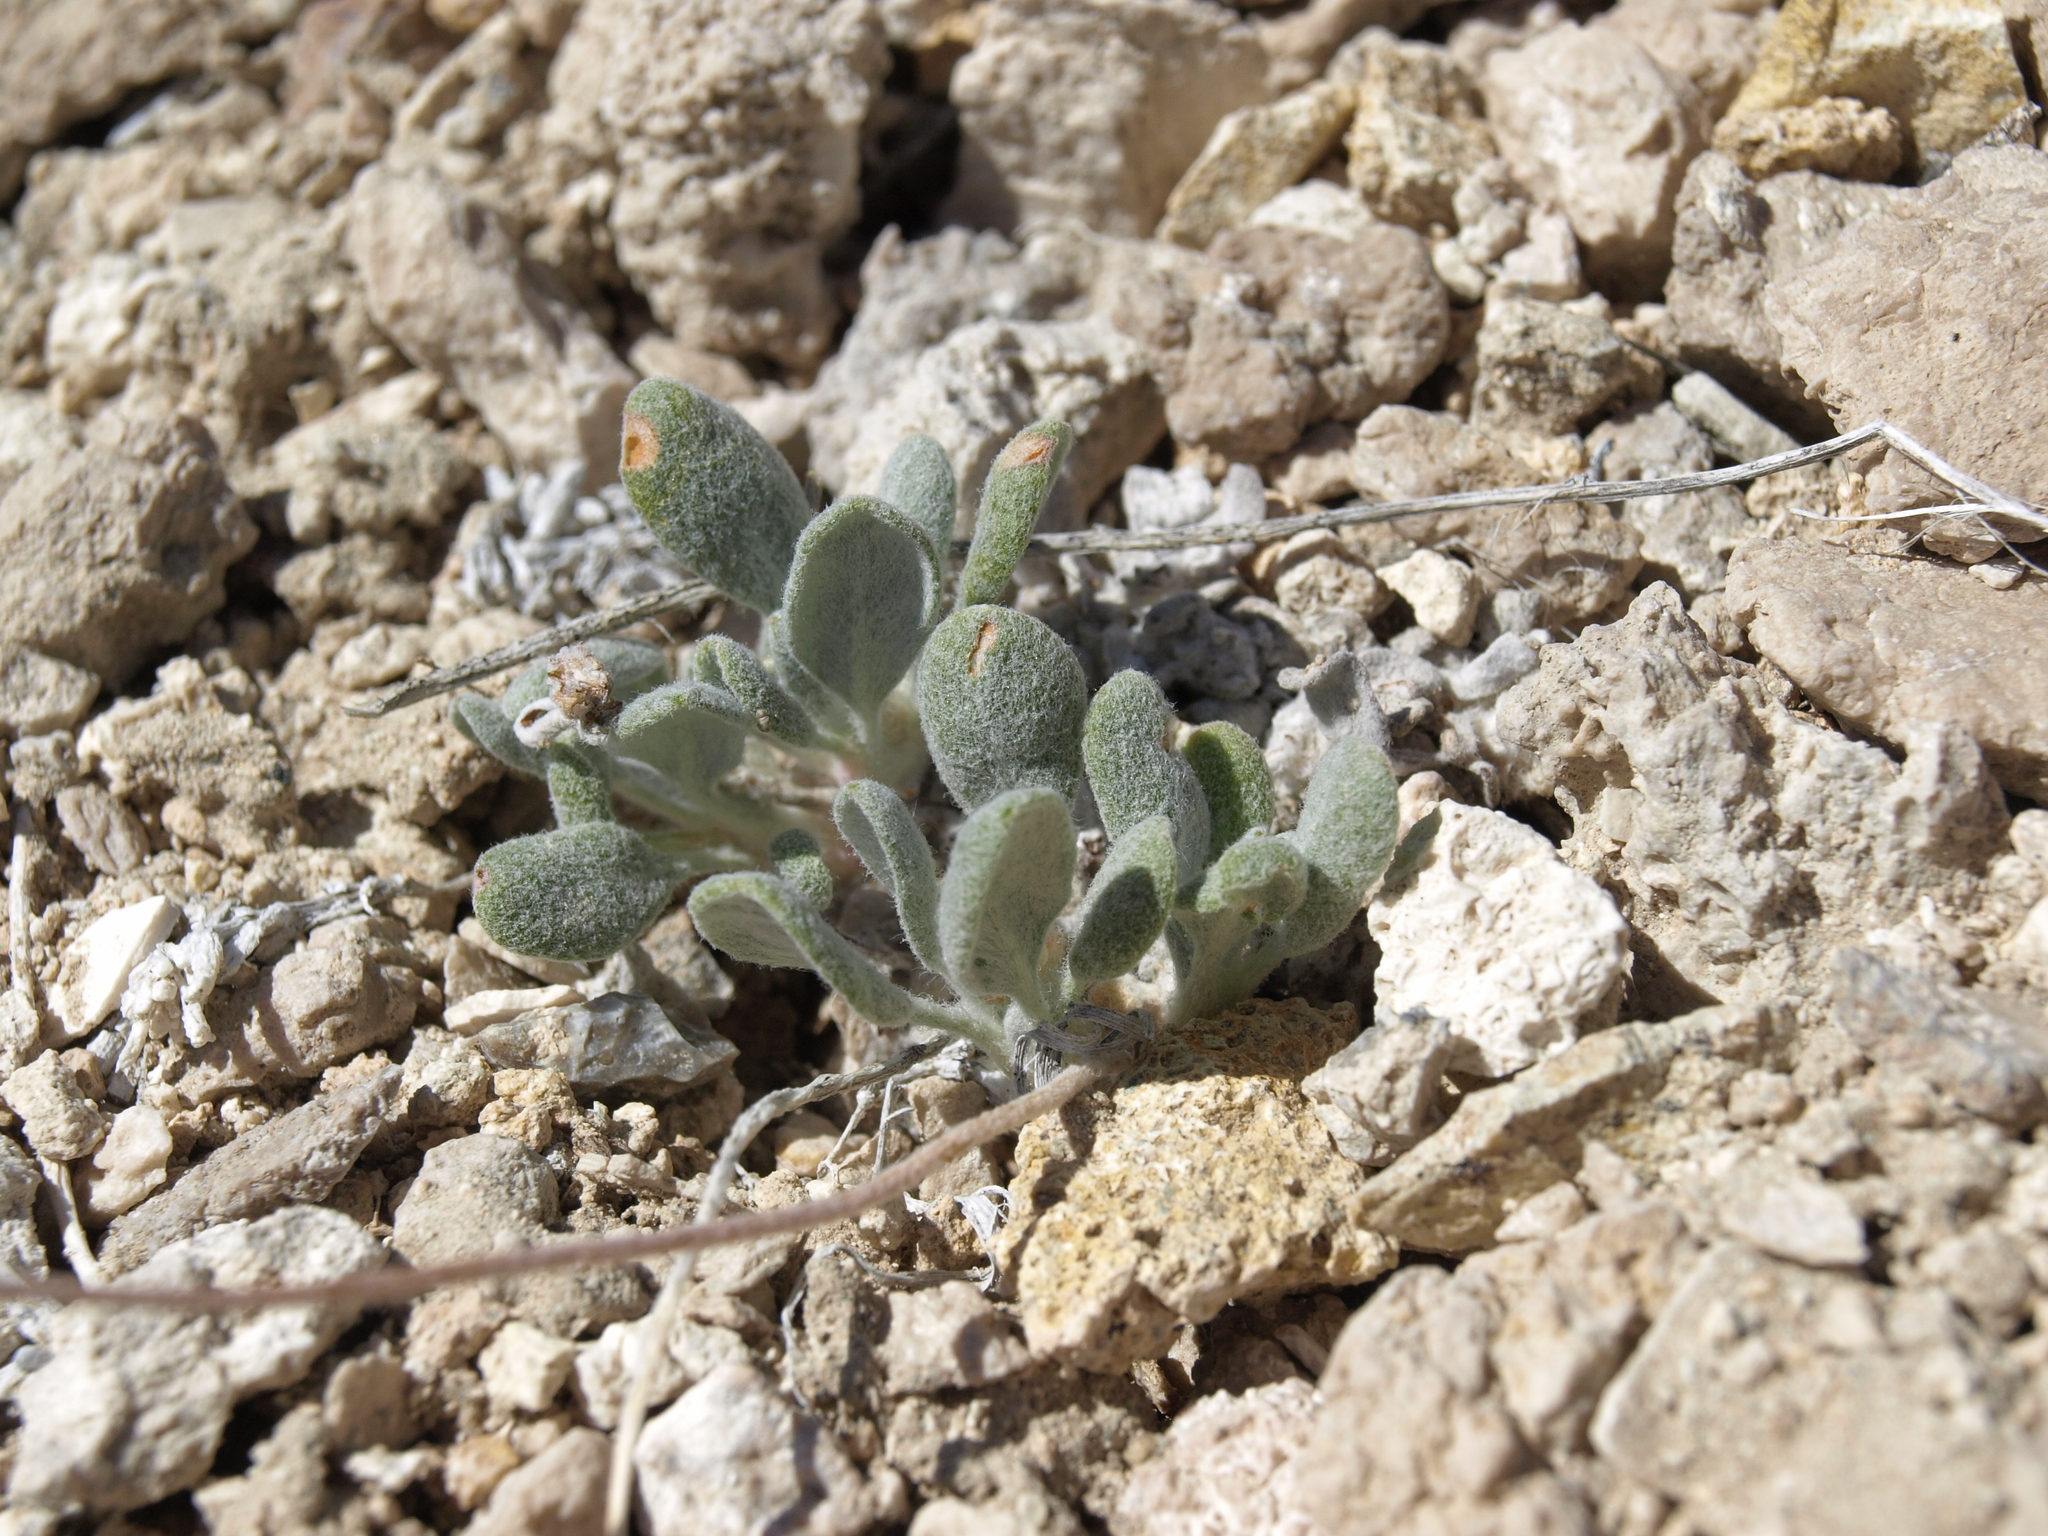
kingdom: Plantae
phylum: Tracheophyta
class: Magnoliopsida
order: Caryophyllales
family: Polygonaceae
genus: Eriogonum
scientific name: Eriogonum tiehmii
